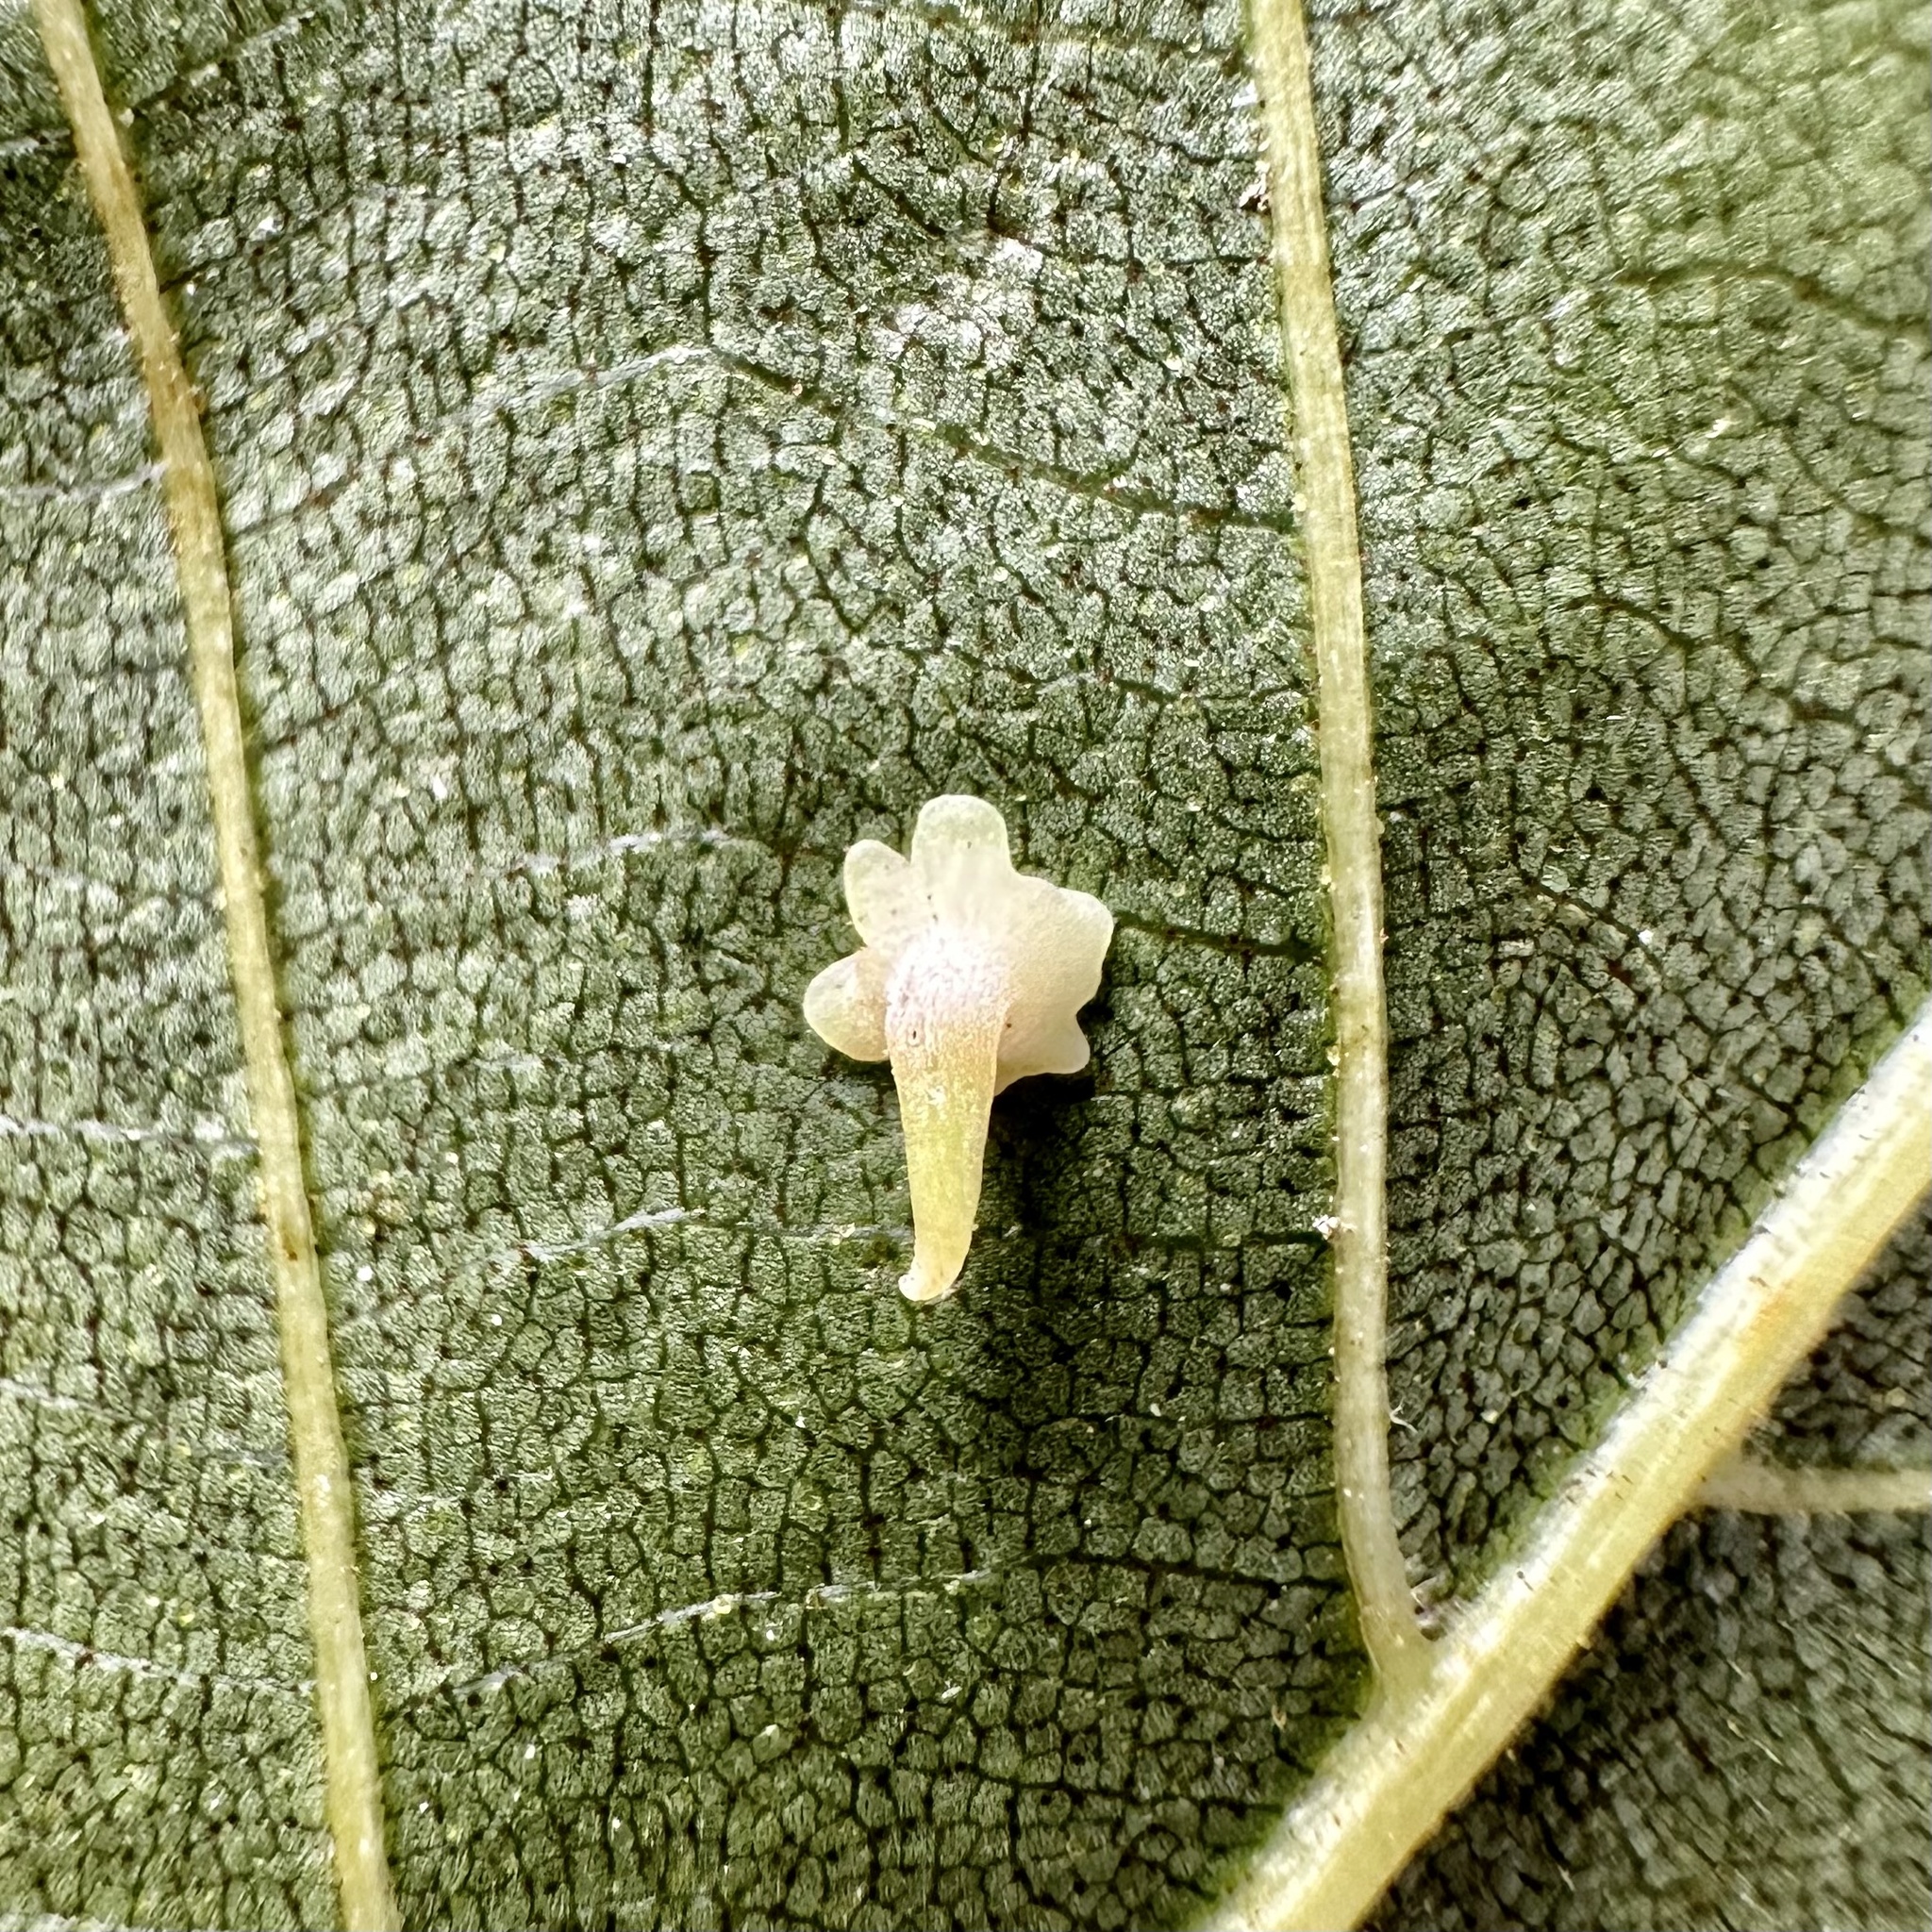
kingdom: Animalia
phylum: Arthropoda
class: Insecta
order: Diptera
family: Cecidomyiidae
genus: Caryomyia
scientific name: Caryomyia stellata
